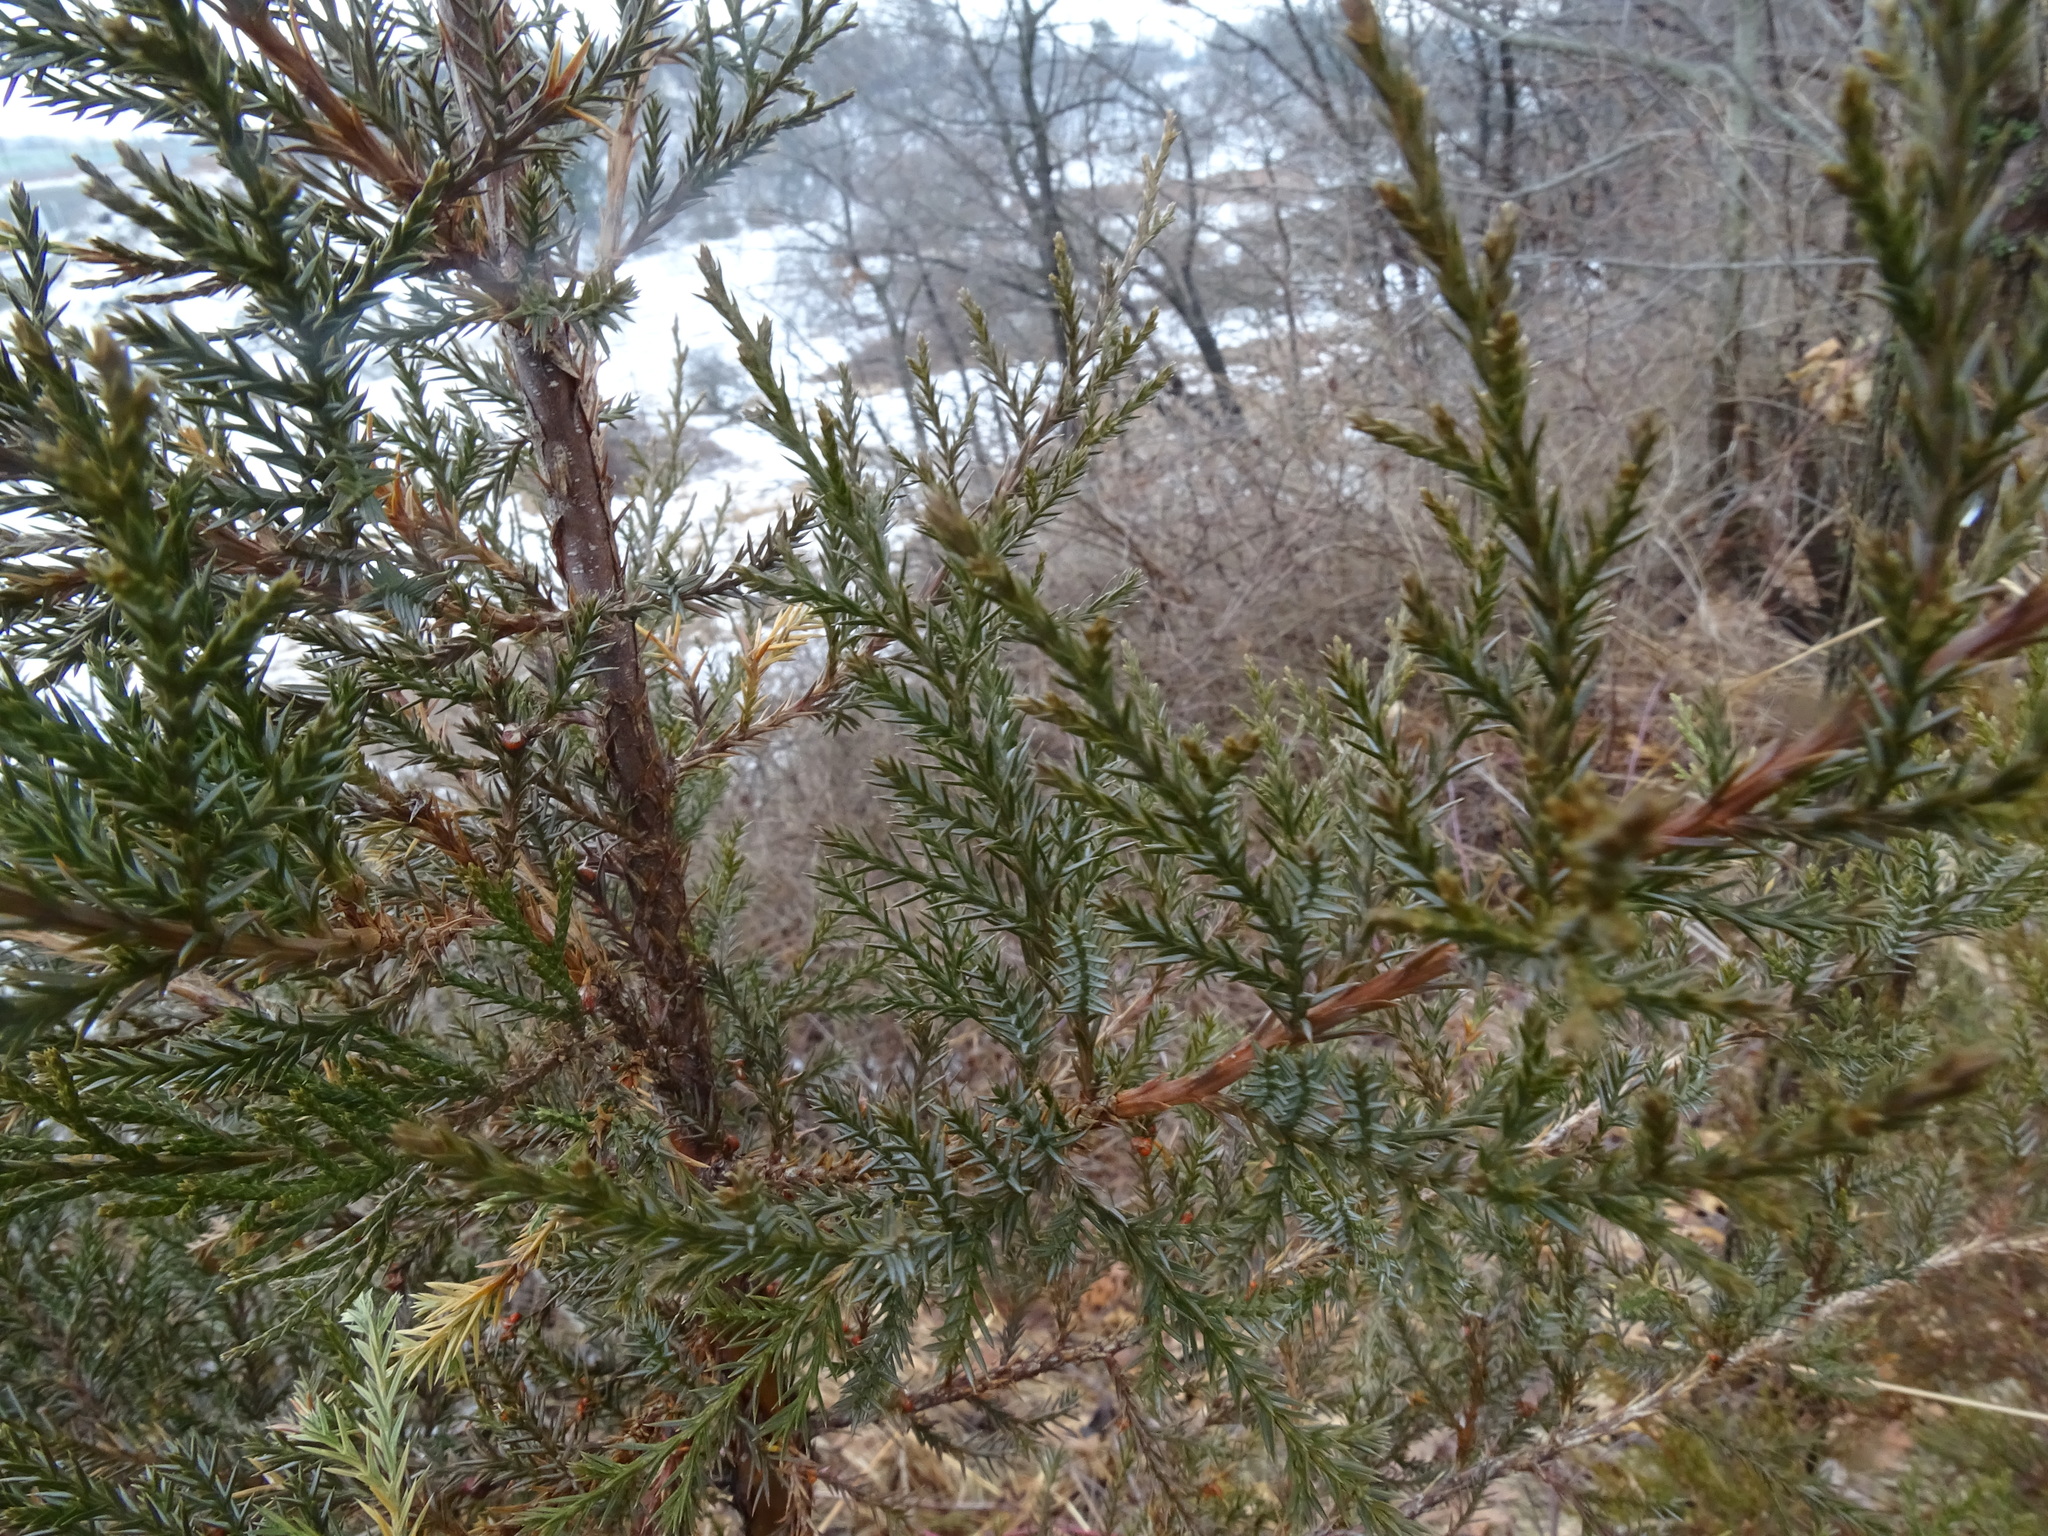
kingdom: Plantae
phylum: Tracheophyta
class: Pinopsida
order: Pinales
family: Cupressaceae
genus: Juniperus
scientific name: Juniperus virginiana
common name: Red juniper
